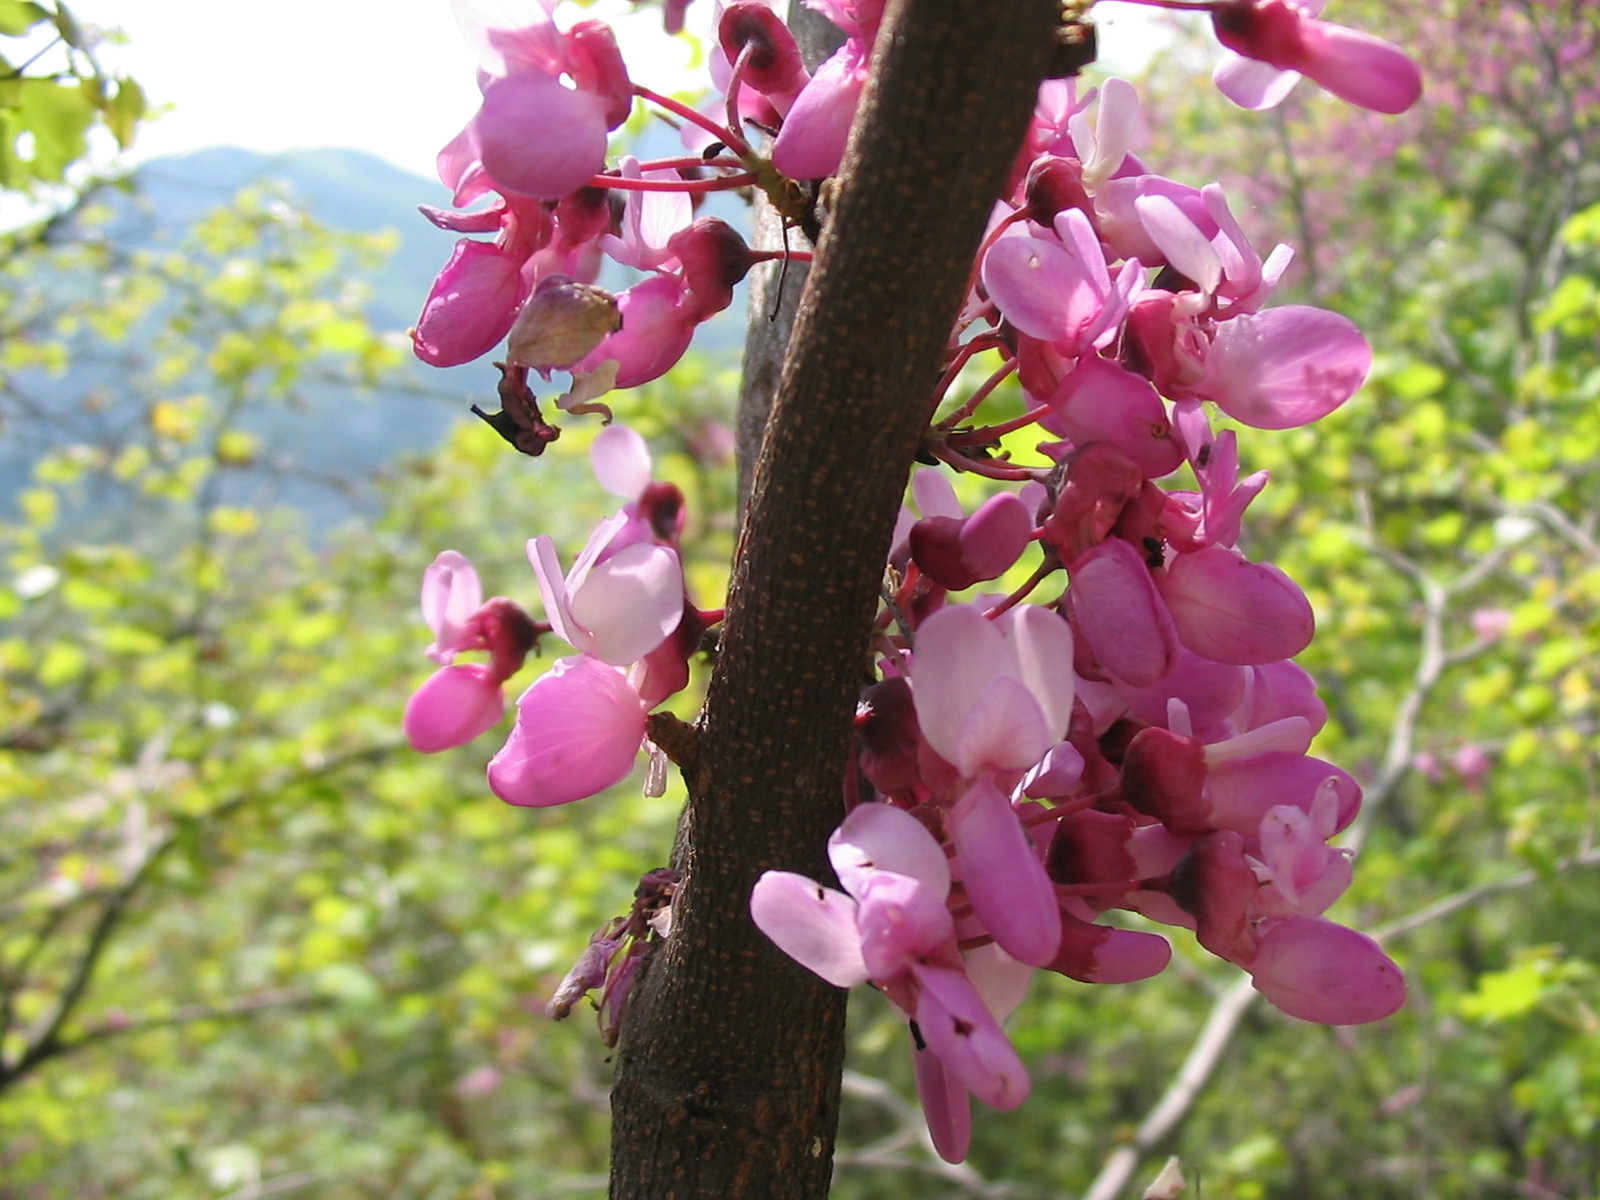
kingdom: Plantae
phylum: Tracheophyta
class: Magnoliopsida
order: Fabales
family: Fabaceae
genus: Cercis
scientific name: Cercis siliquastrum
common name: Judas tree
